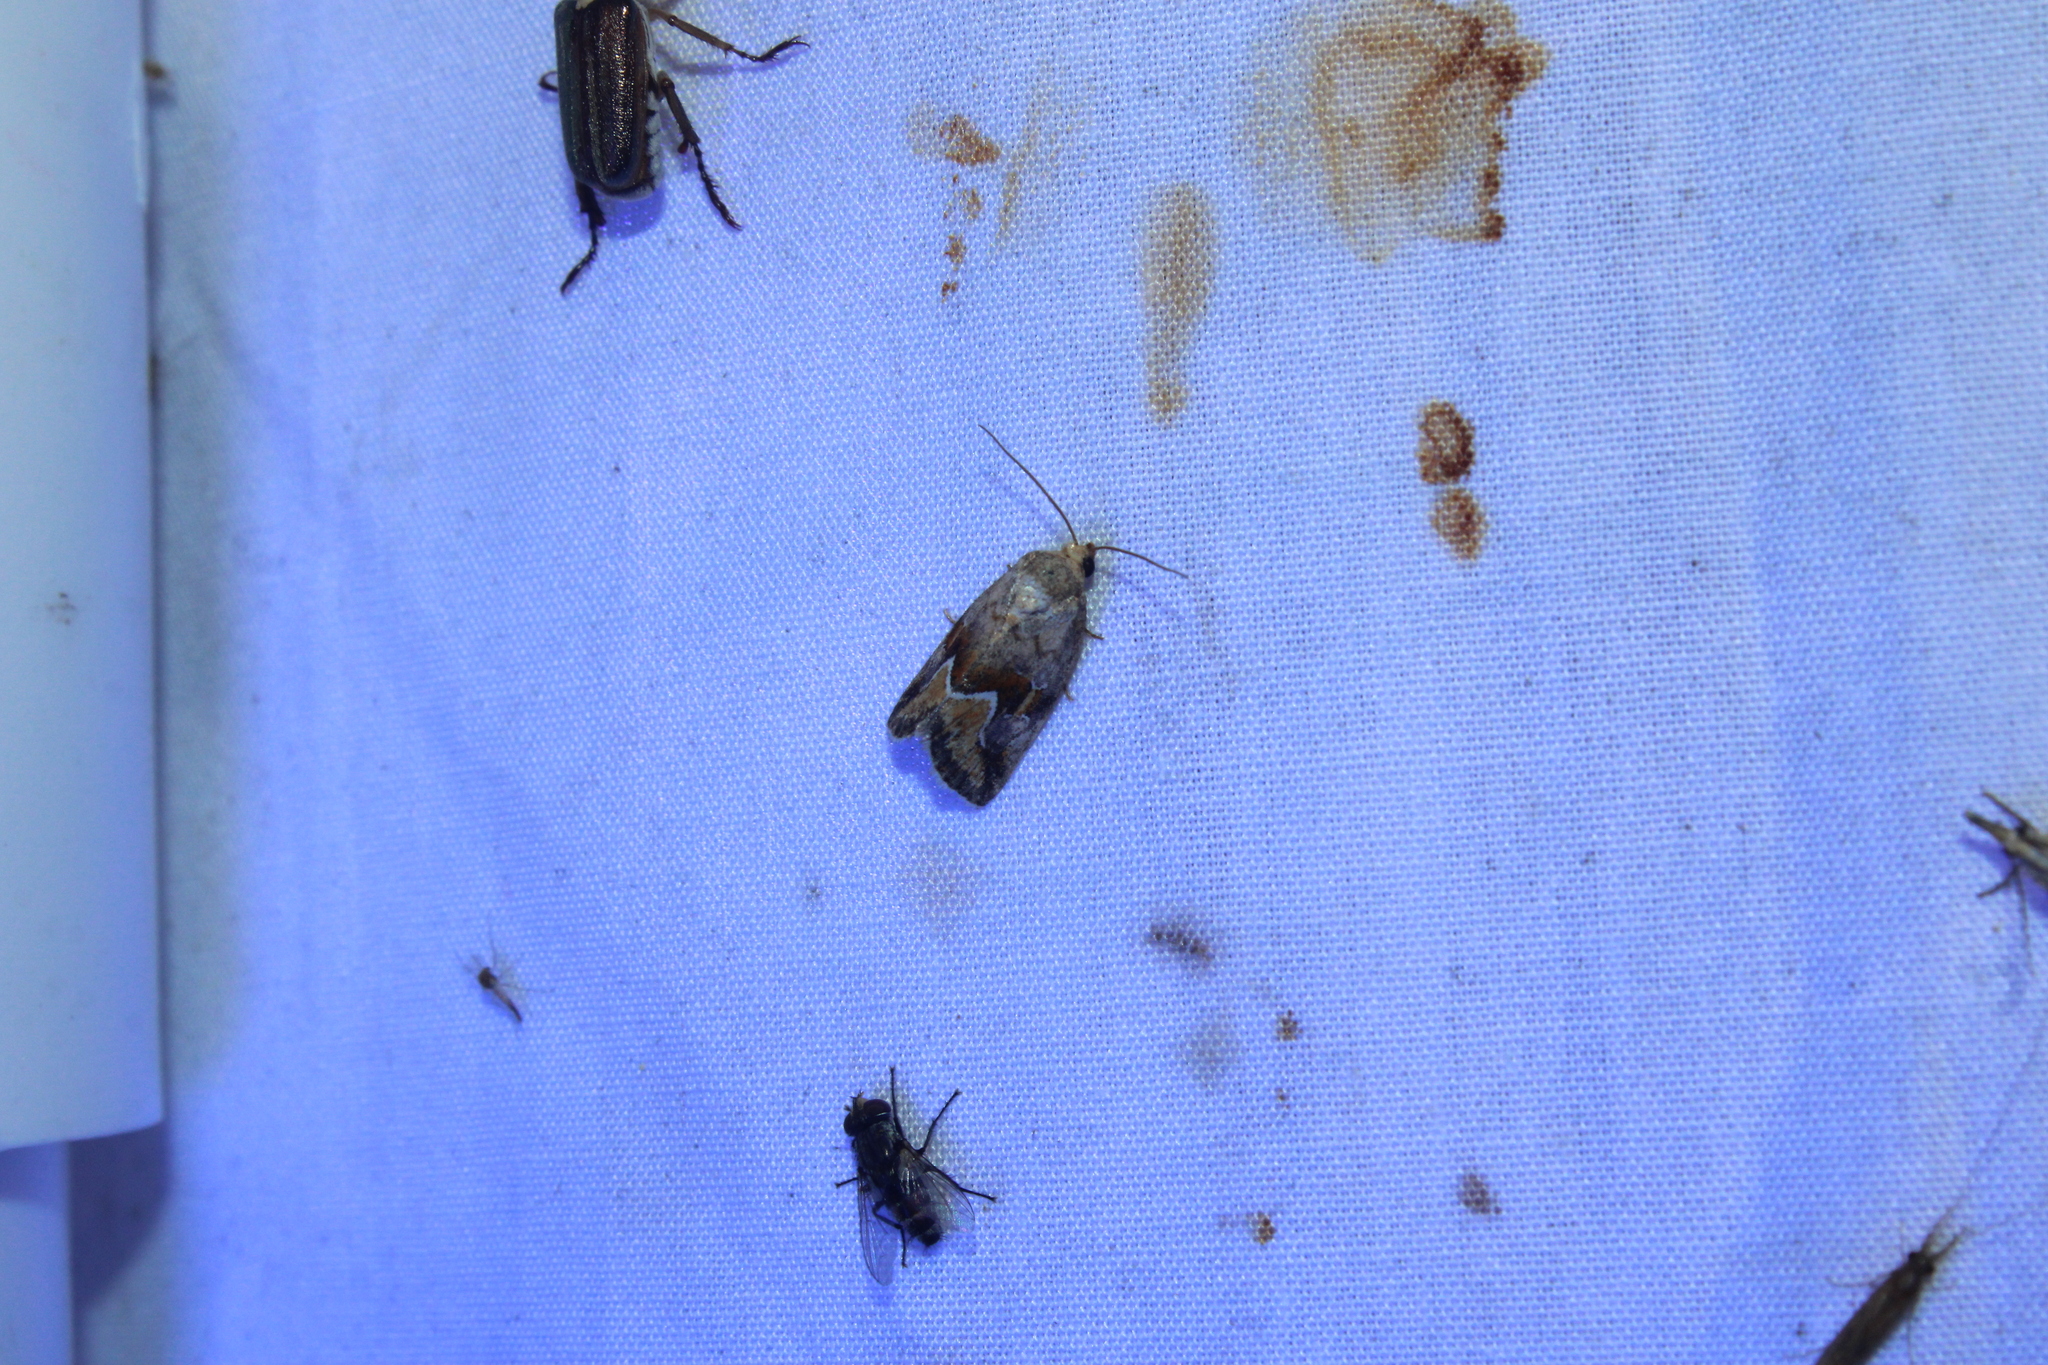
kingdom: Animalia
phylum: Arthropoda
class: Insecta
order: Lepidoptera
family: Noctuidae
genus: Deltote
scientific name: Deltote bellicula
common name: Bog glyph
